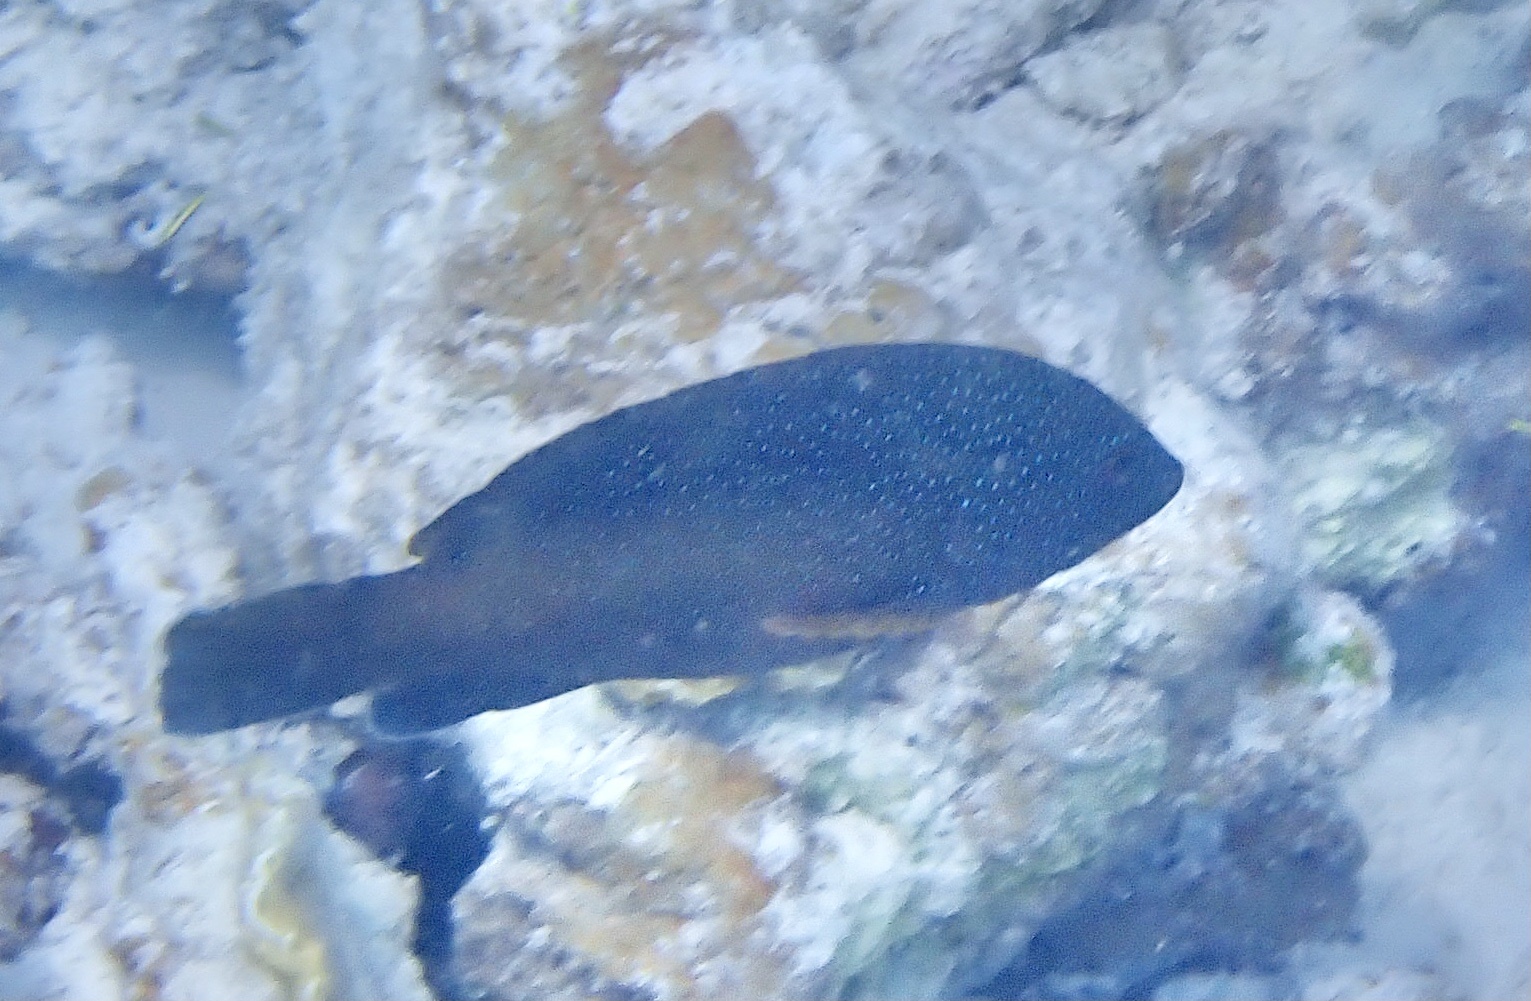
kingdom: Animalia
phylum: Chordata
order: Perciformes
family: Serranidae
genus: Cephalopholis
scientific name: Cephalopholis fulva
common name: Butterfish
